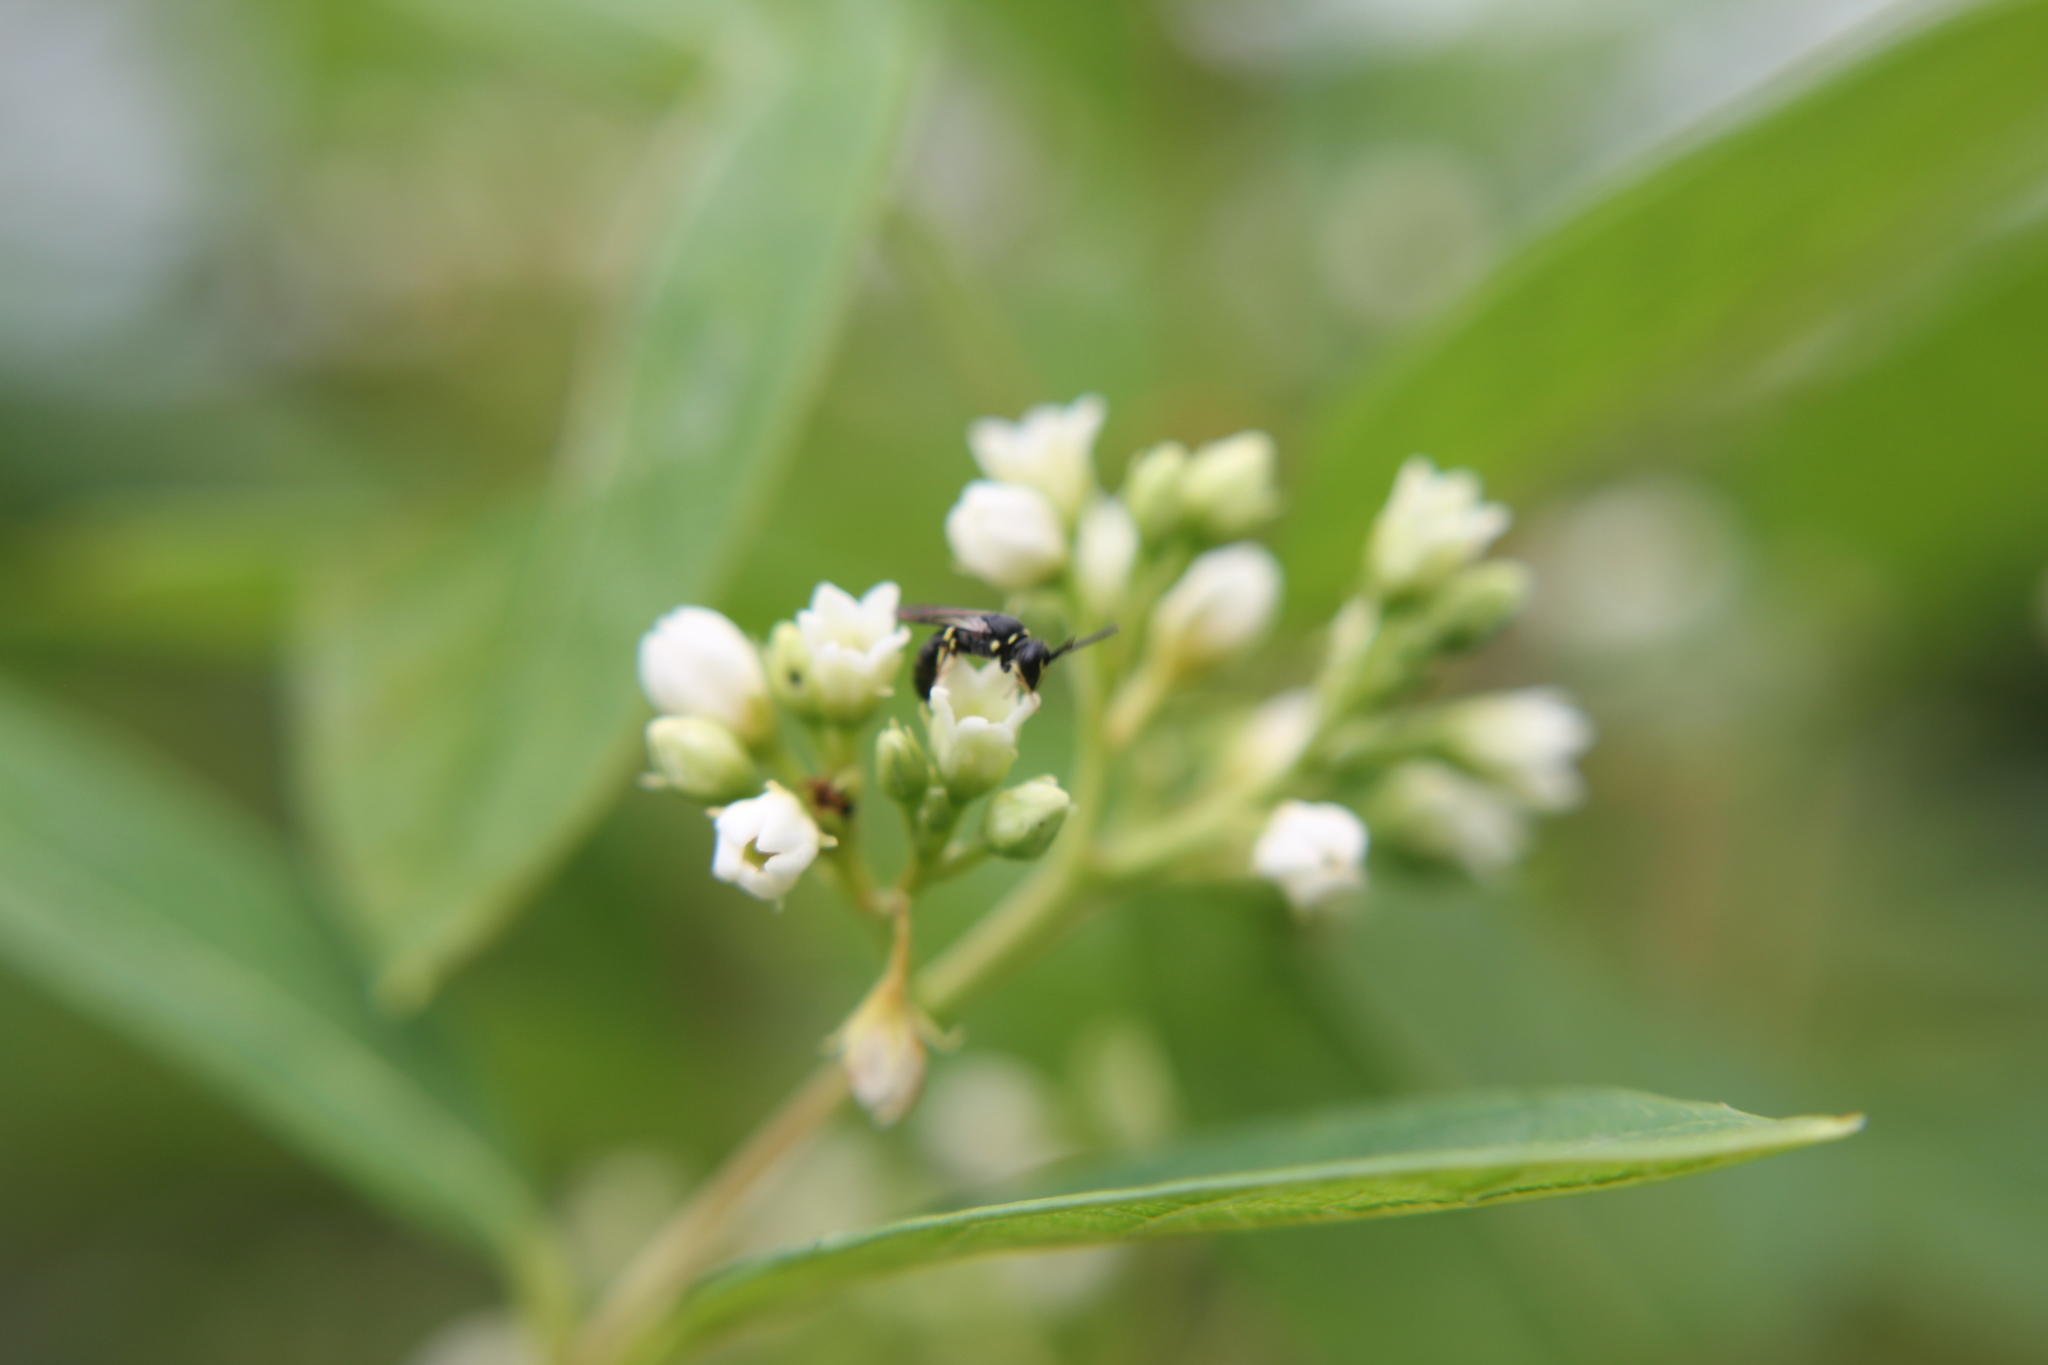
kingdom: Animalia
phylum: Arthropoda
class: Insecta
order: Hymenoptera
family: Colletidae
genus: Hylaeus
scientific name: Hylaeus modestus
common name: Yellow-faced bee
